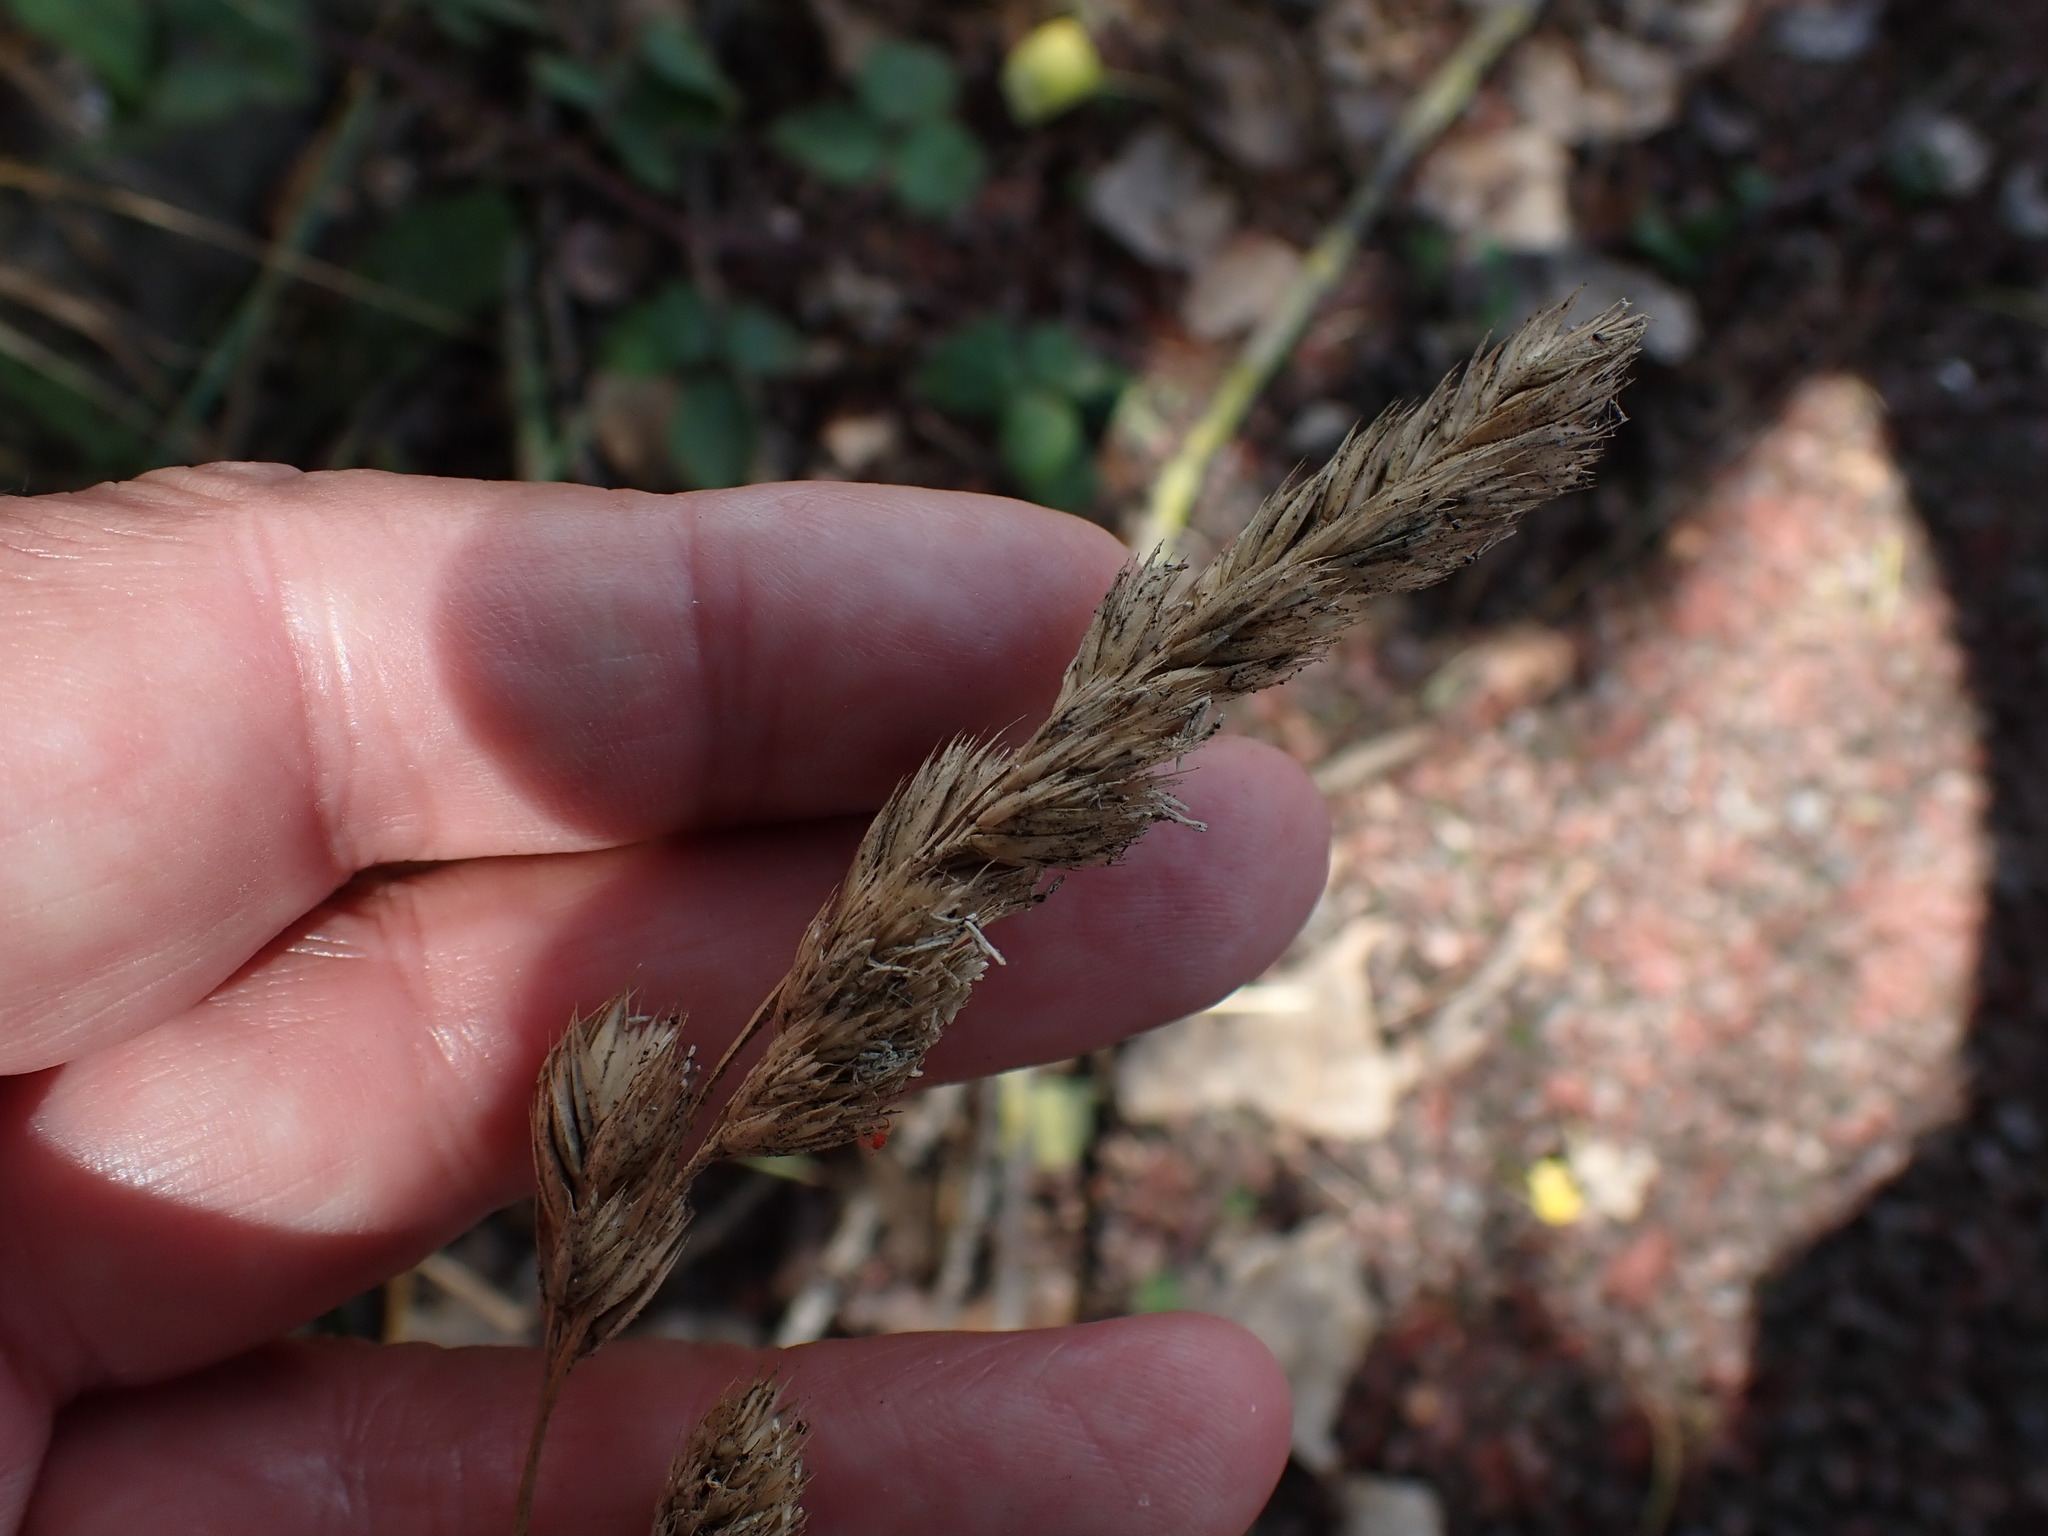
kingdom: Plantae
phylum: Tracheophyta
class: Liliopsida
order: Poales
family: Poaceae
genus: Dactylis
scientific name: Dactylis glomerata
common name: Orchardgrass
